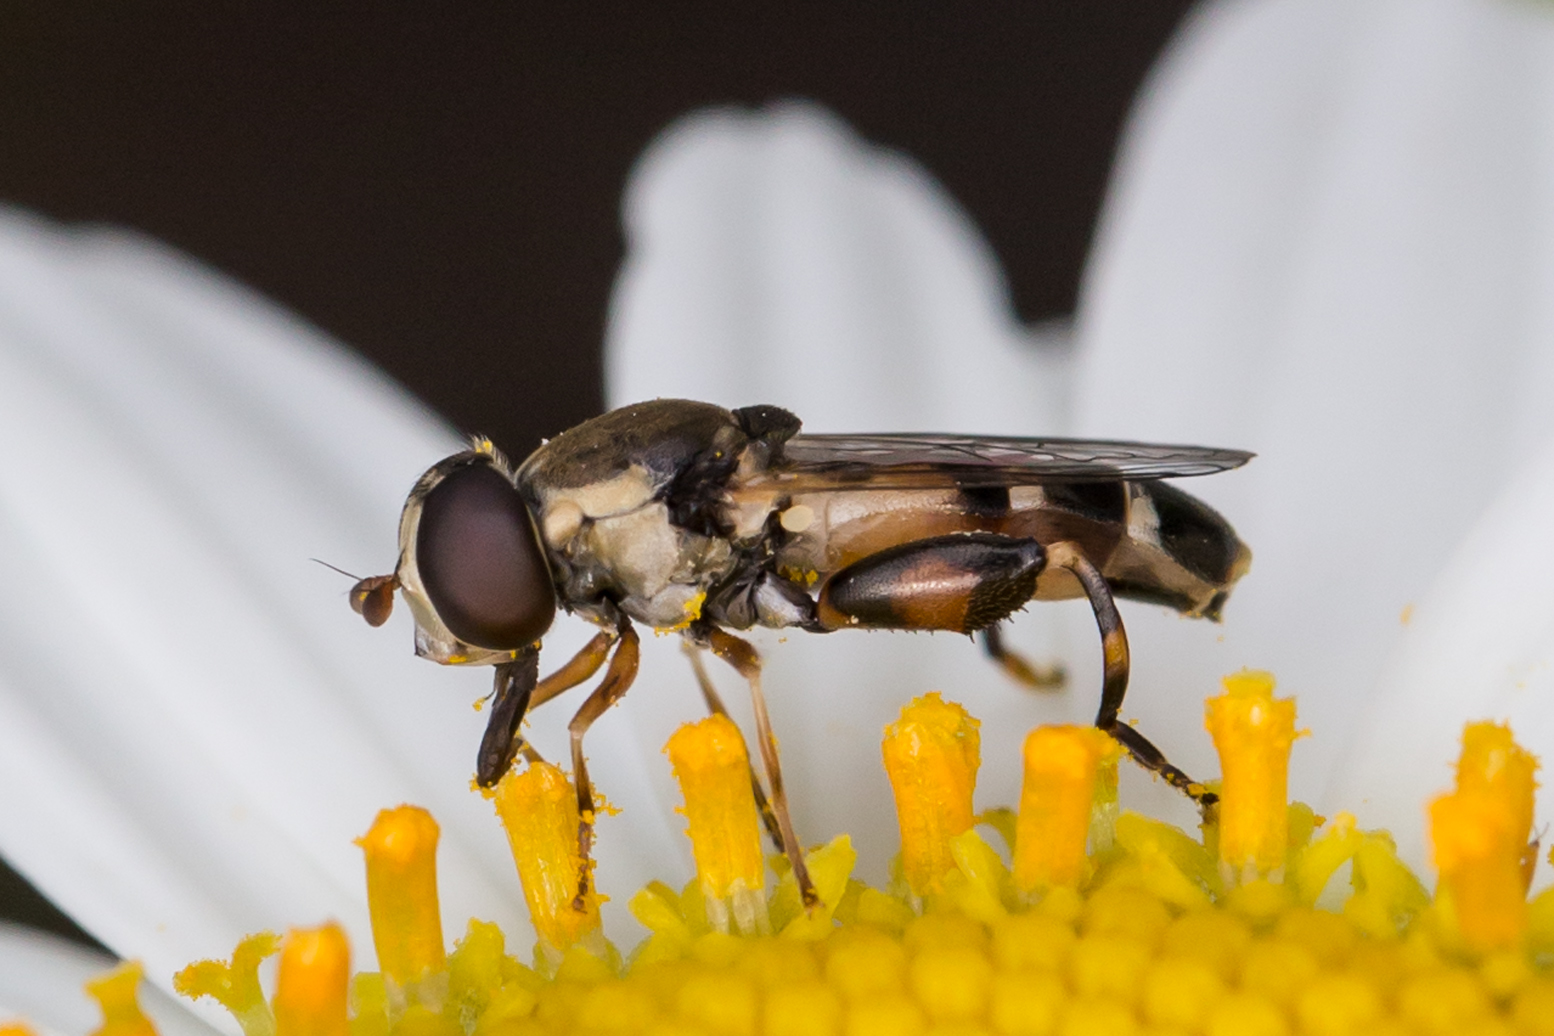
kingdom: Animalia
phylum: Arthropoda
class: Insecta
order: Diptera
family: Syrphidae
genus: Syritta
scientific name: Syritta pipiens
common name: Hover fly
